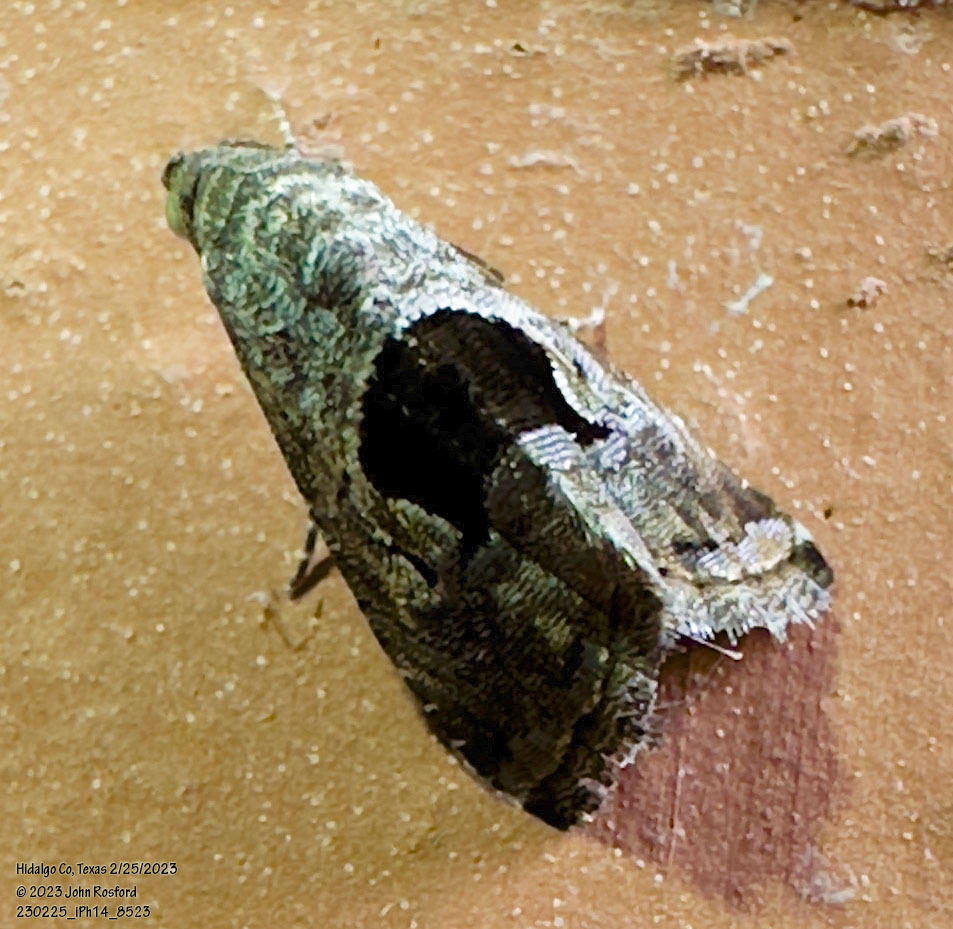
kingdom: Animalia
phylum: Arthropoda
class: Insecta
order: Lepidoptera
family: Noctuidae
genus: Tripudia
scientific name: Tripudia quadrifera
